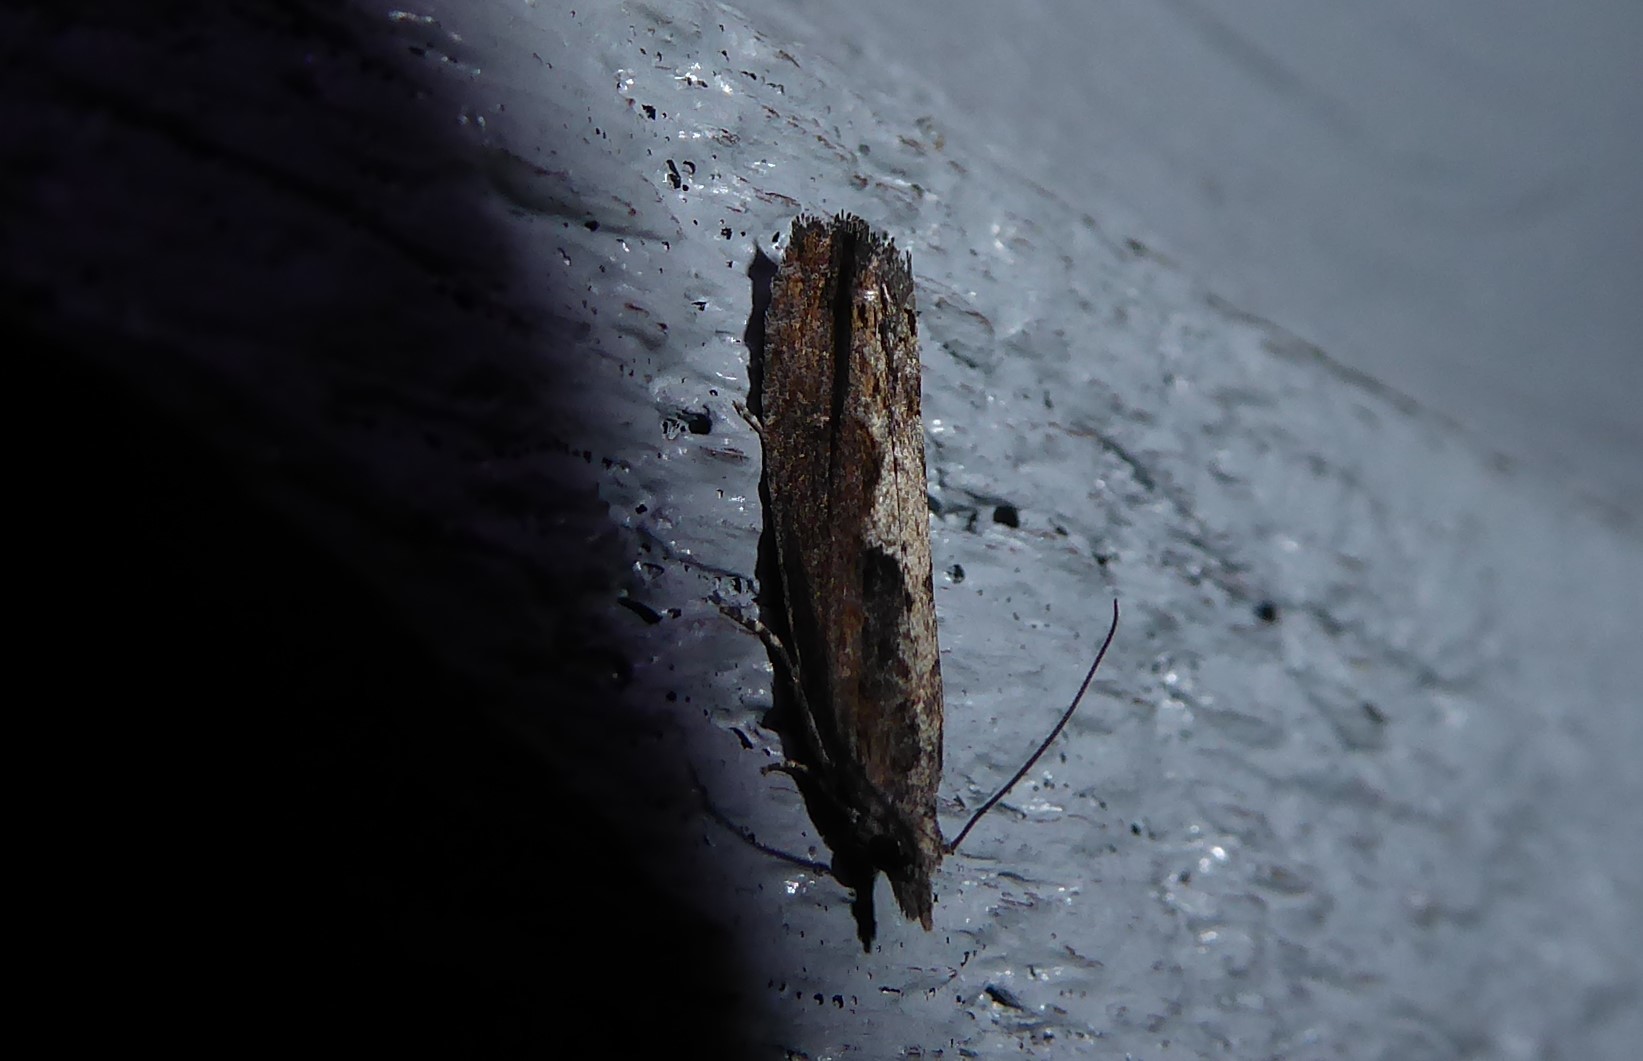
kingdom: Animalia
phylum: Arthropoda
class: Insecta
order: Lepidoptera
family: Crambidae
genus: Eudonia
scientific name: Eudonia steropaea
